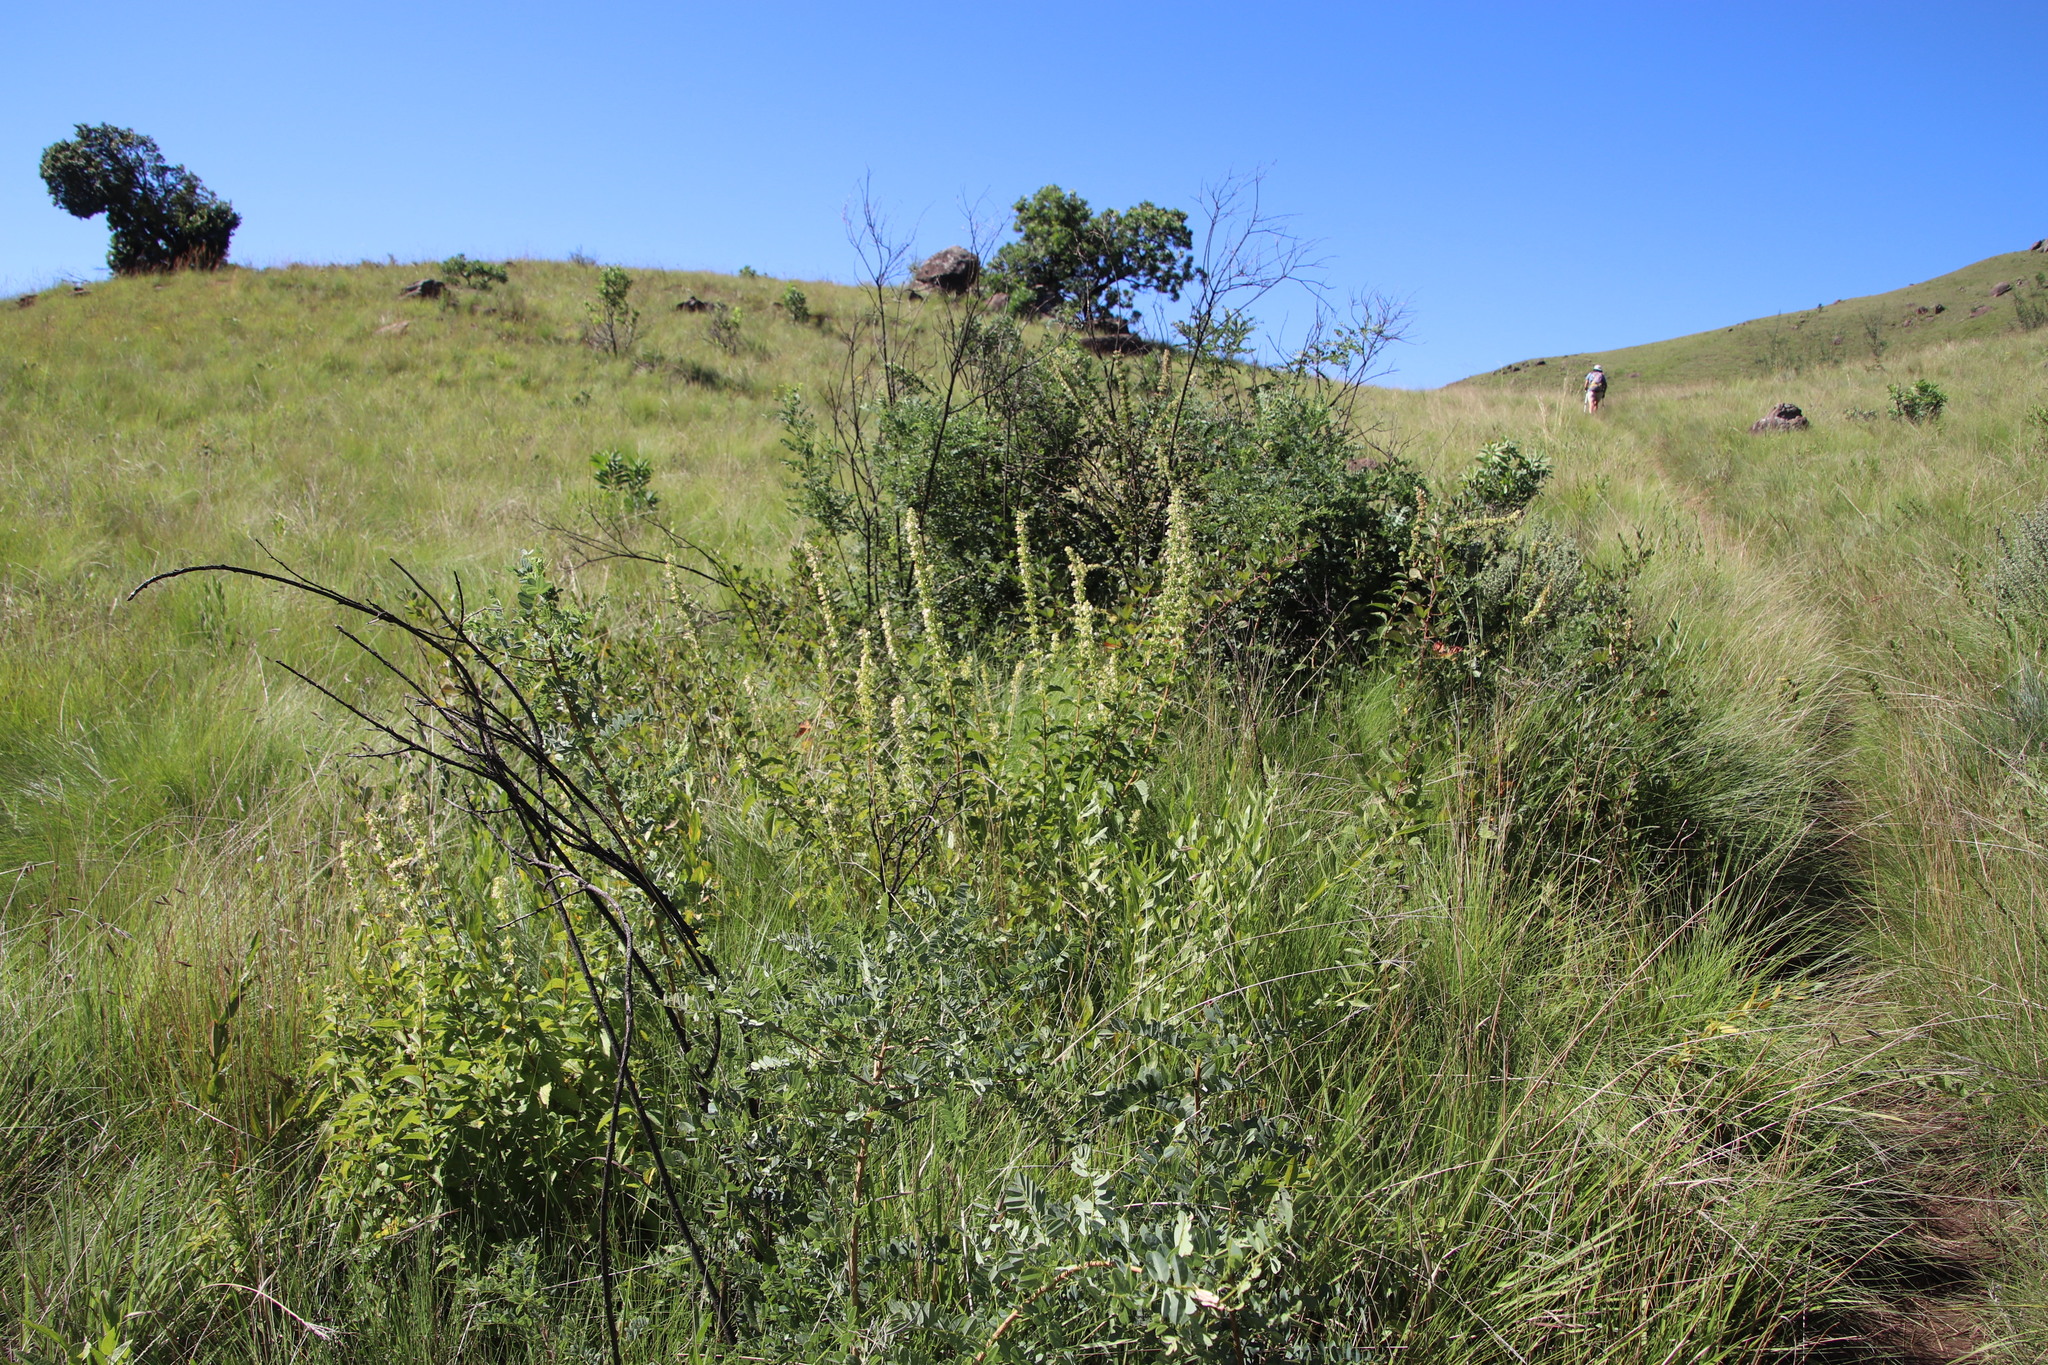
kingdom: Plantae
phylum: Tracheophyta
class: Magnoliopsida
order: Lamiales
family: Lamiaceae
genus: Coleus
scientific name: Coleus calycinus
